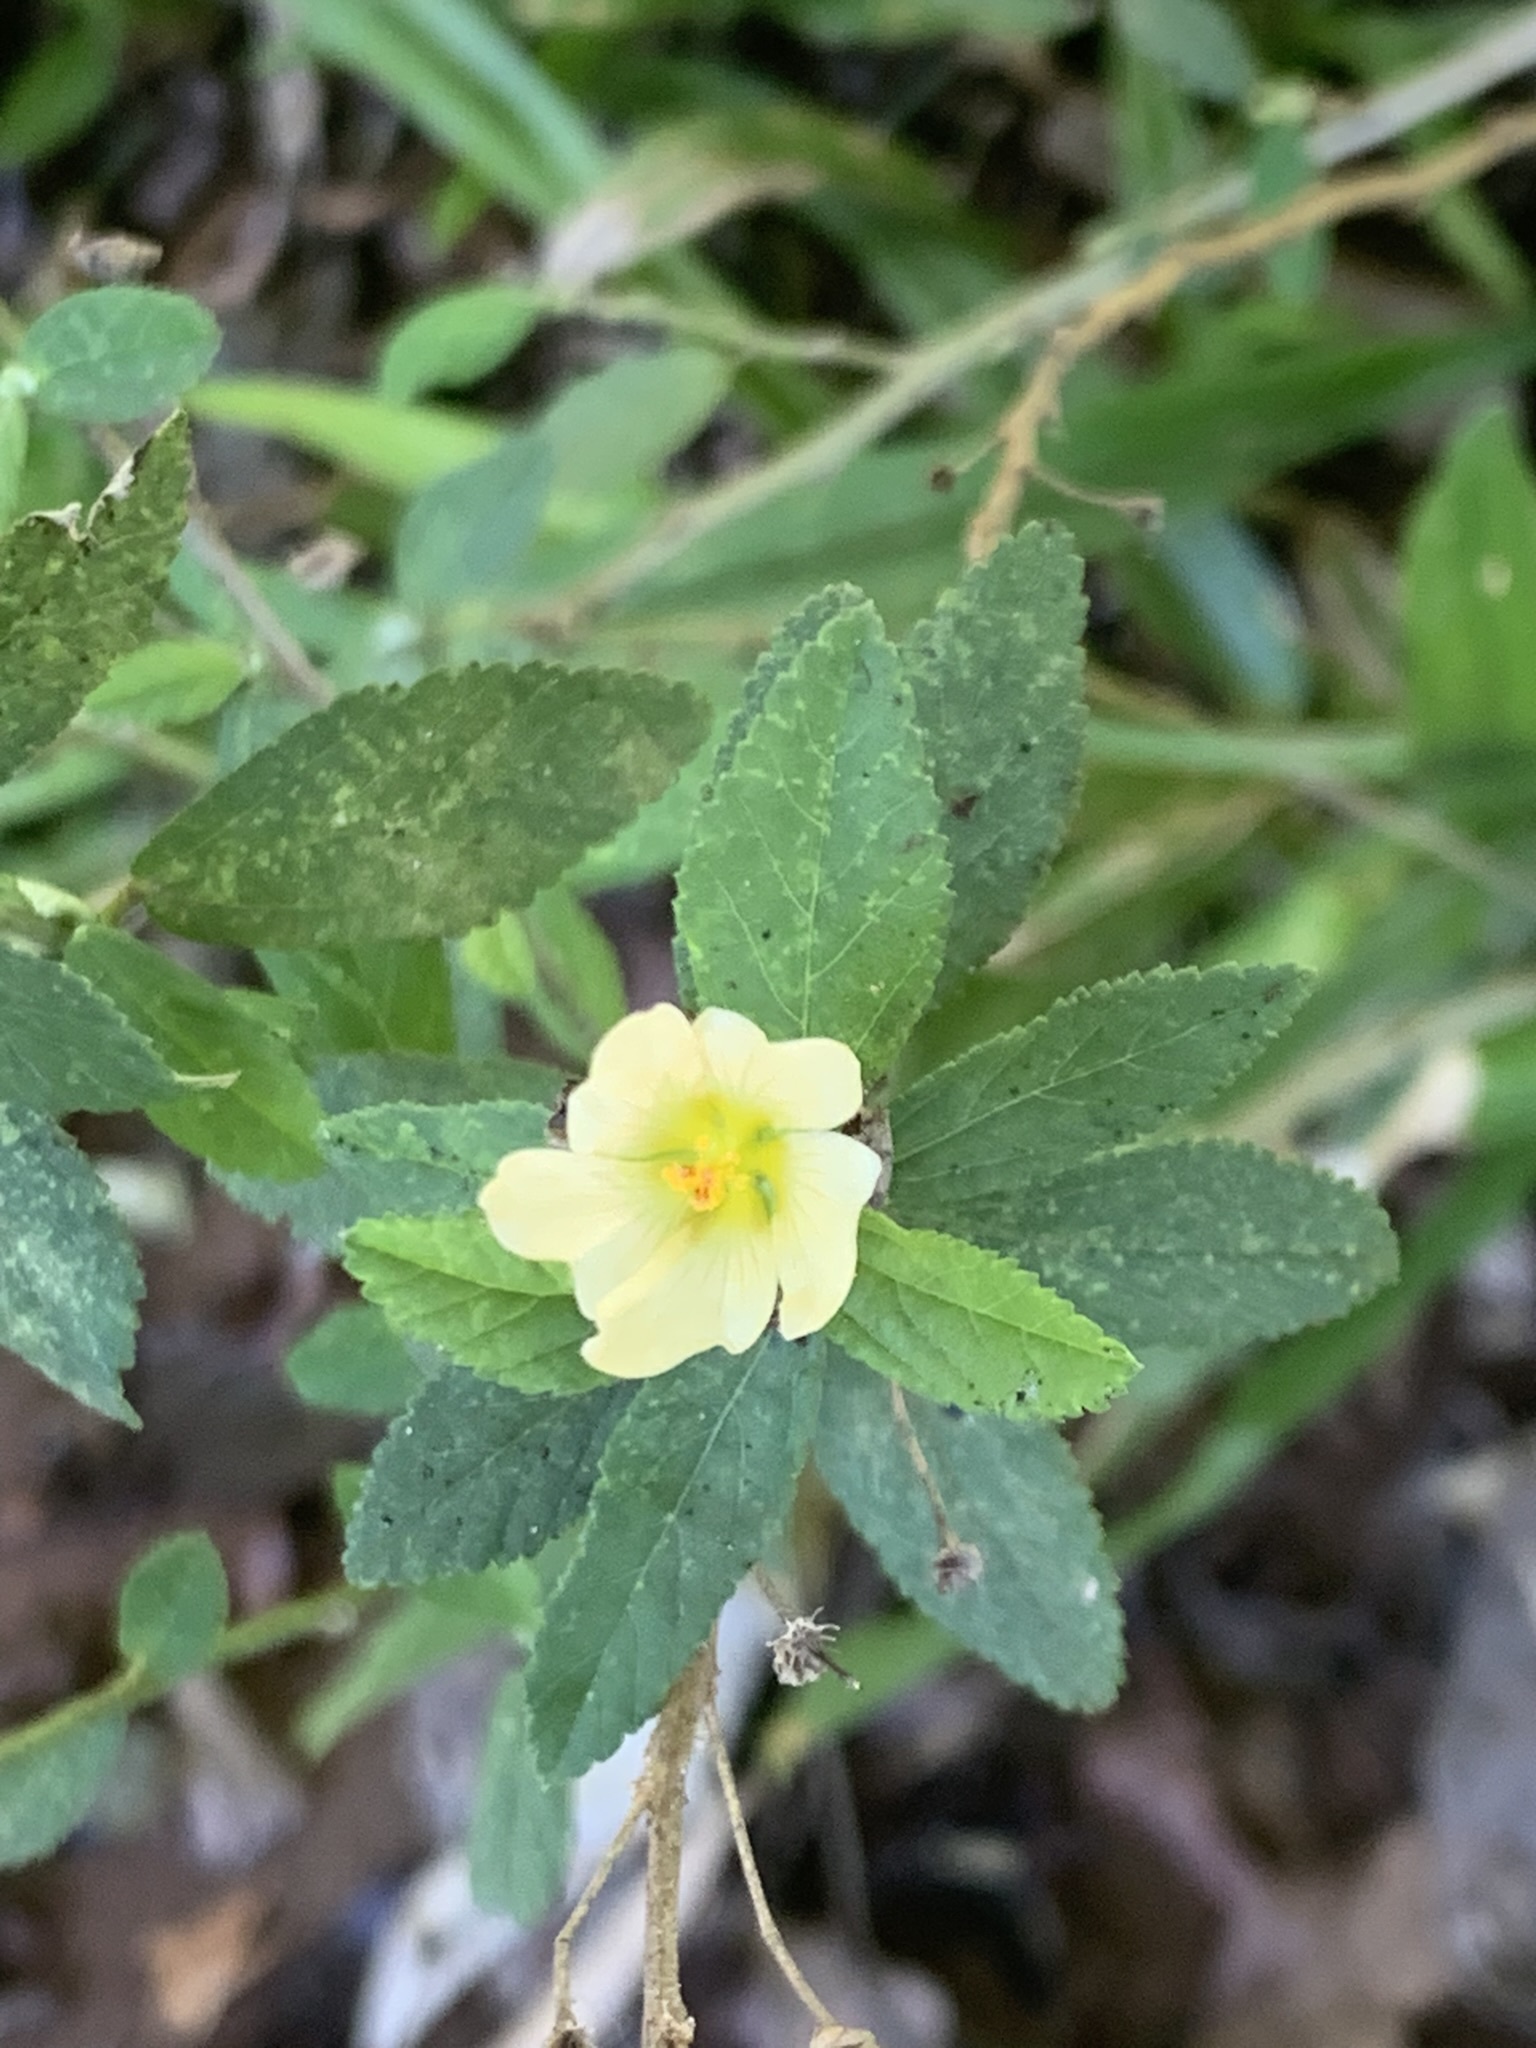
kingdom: Plantae
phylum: Tracheophyta
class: Magnoliopsida
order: Malvales
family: Malvaceae
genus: Sida
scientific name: Sida rhombifolia
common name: Queensland-hemp
